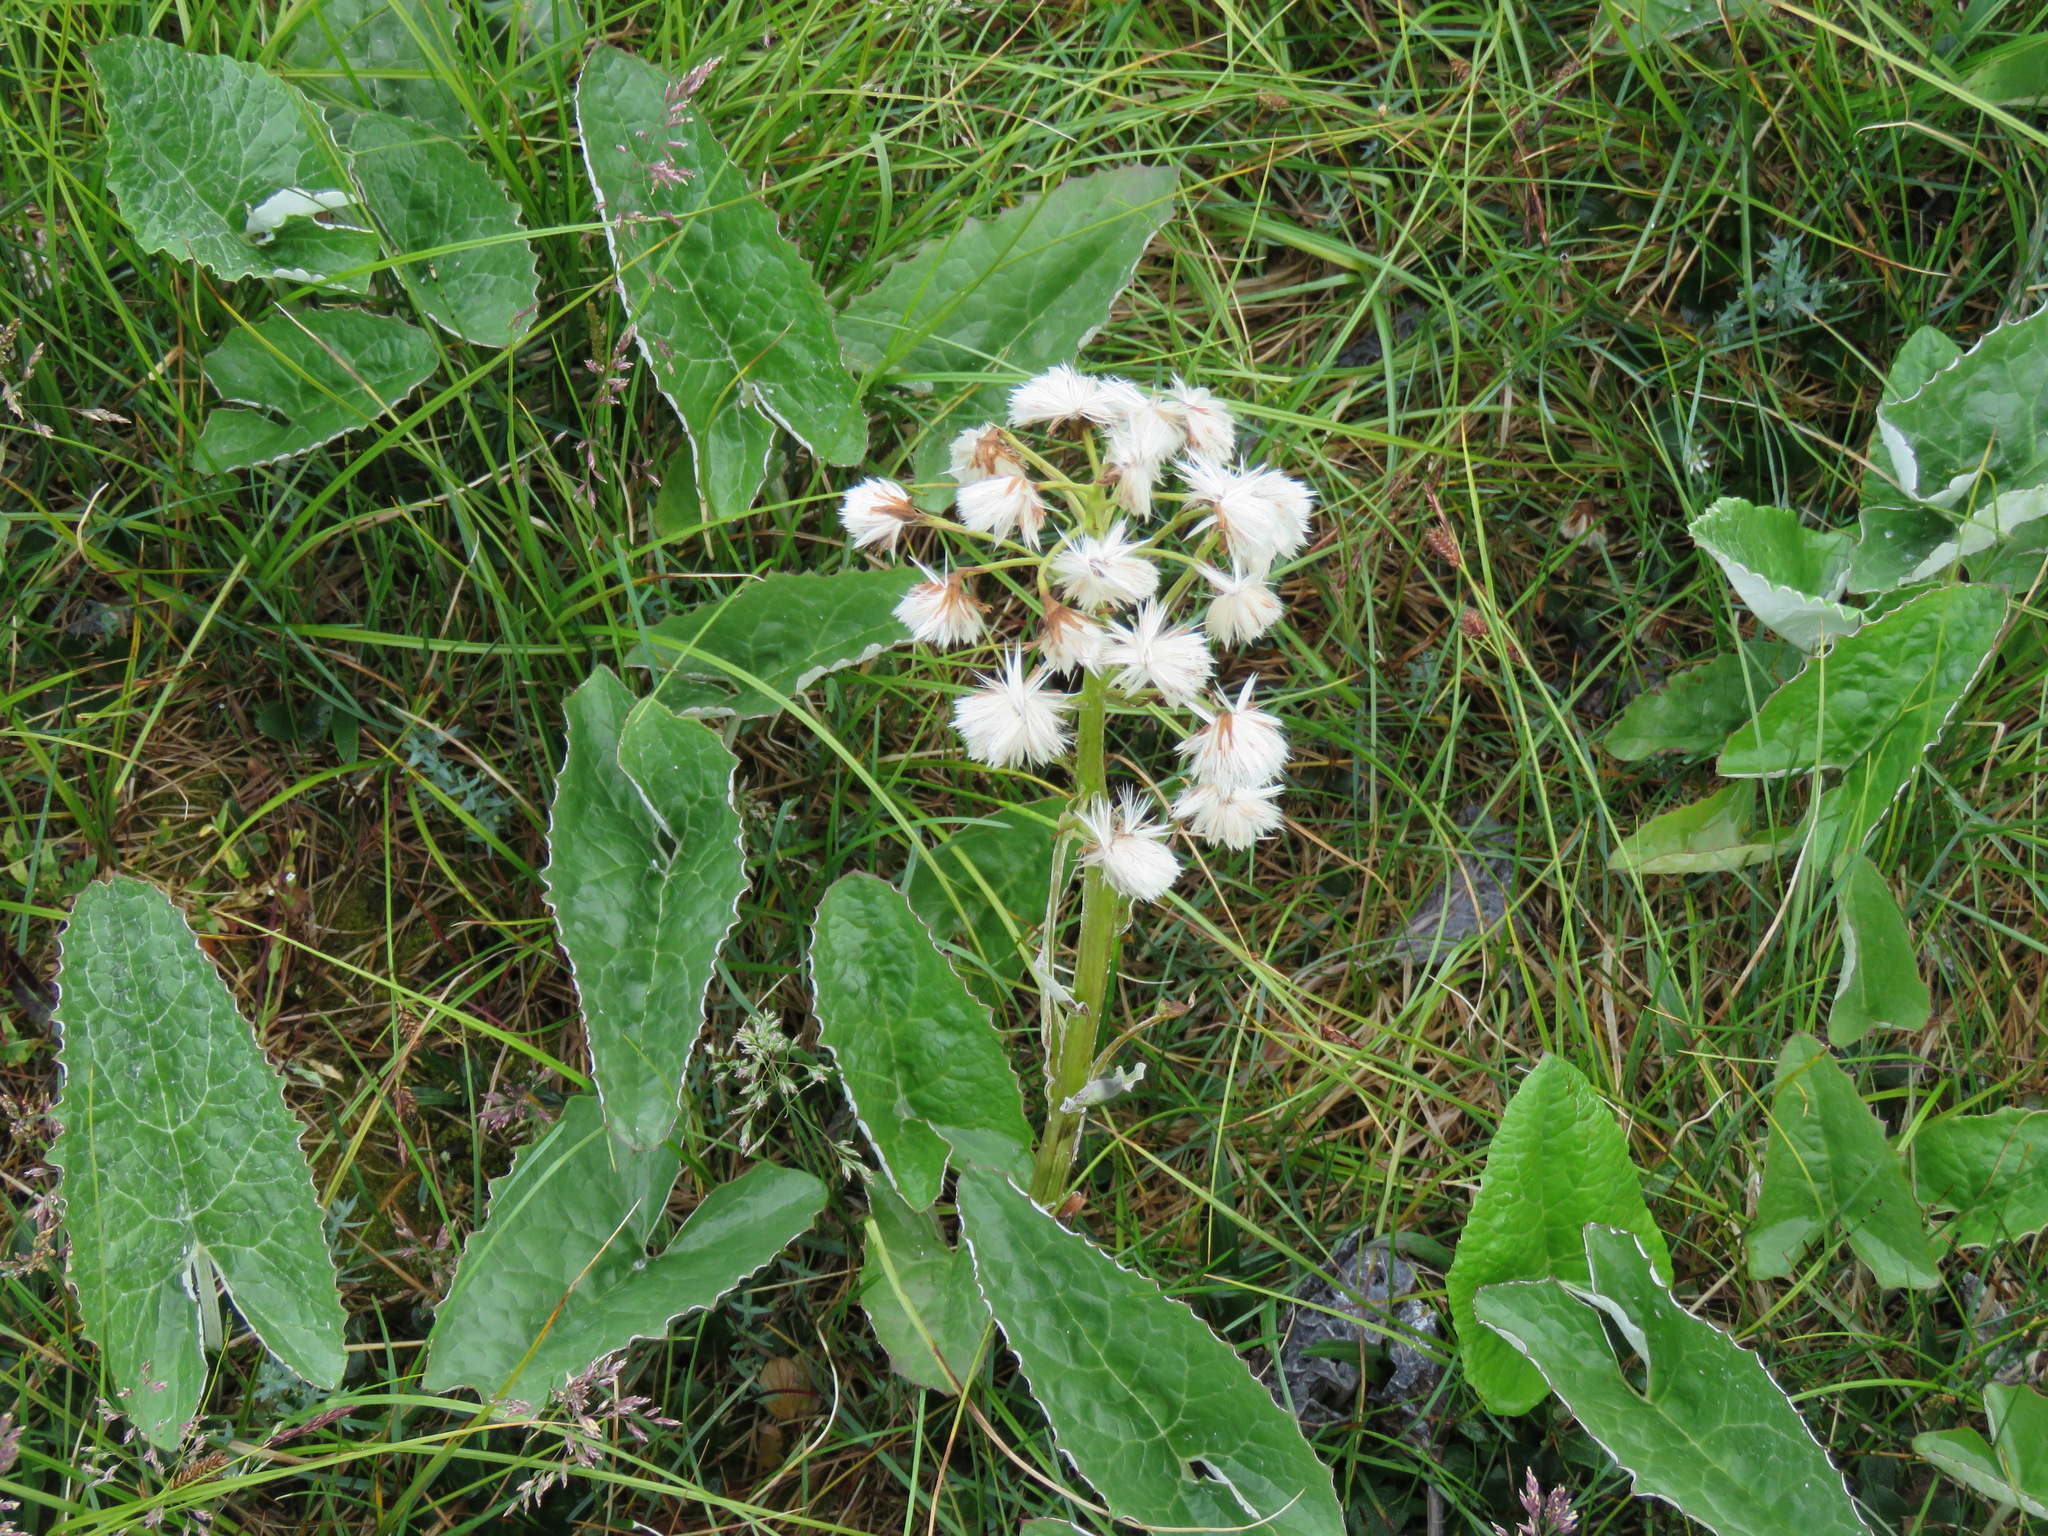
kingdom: Plantae
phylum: Tracheophyta
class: Magnoliopsida
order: Asterales
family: Asteraceae
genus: Petasites
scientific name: Petasites frigidus
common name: Arctic butterbur
